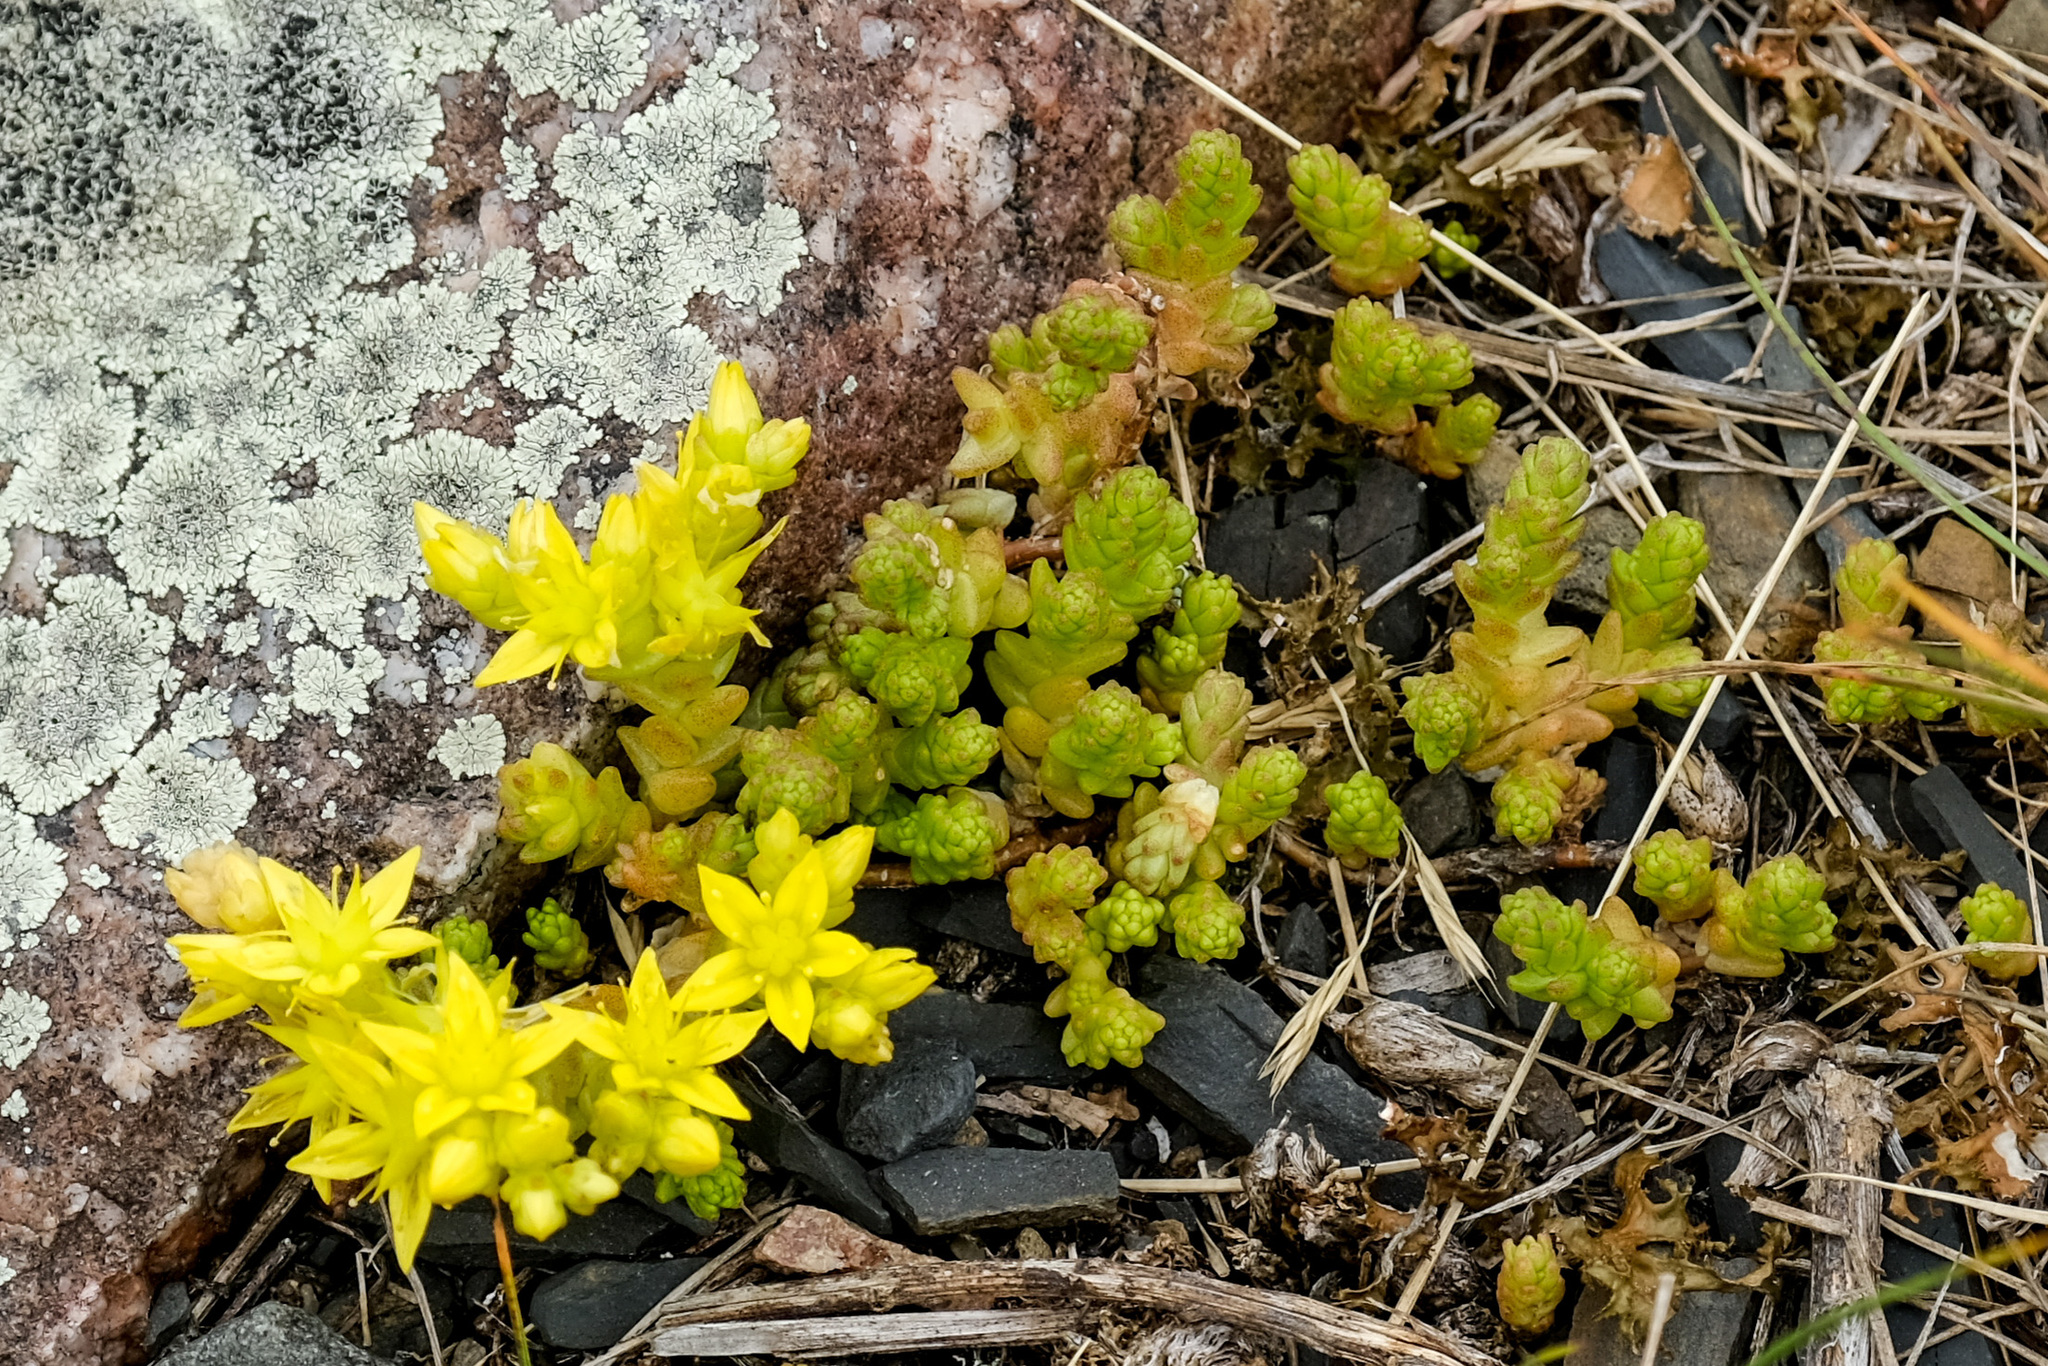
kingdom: Plantae
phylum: Tracheophyta
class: Magnoliopsida
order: Saxifragales
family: Crassulaceae
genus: Sedum
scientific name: Sedum acre
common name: Biting stonecrop
